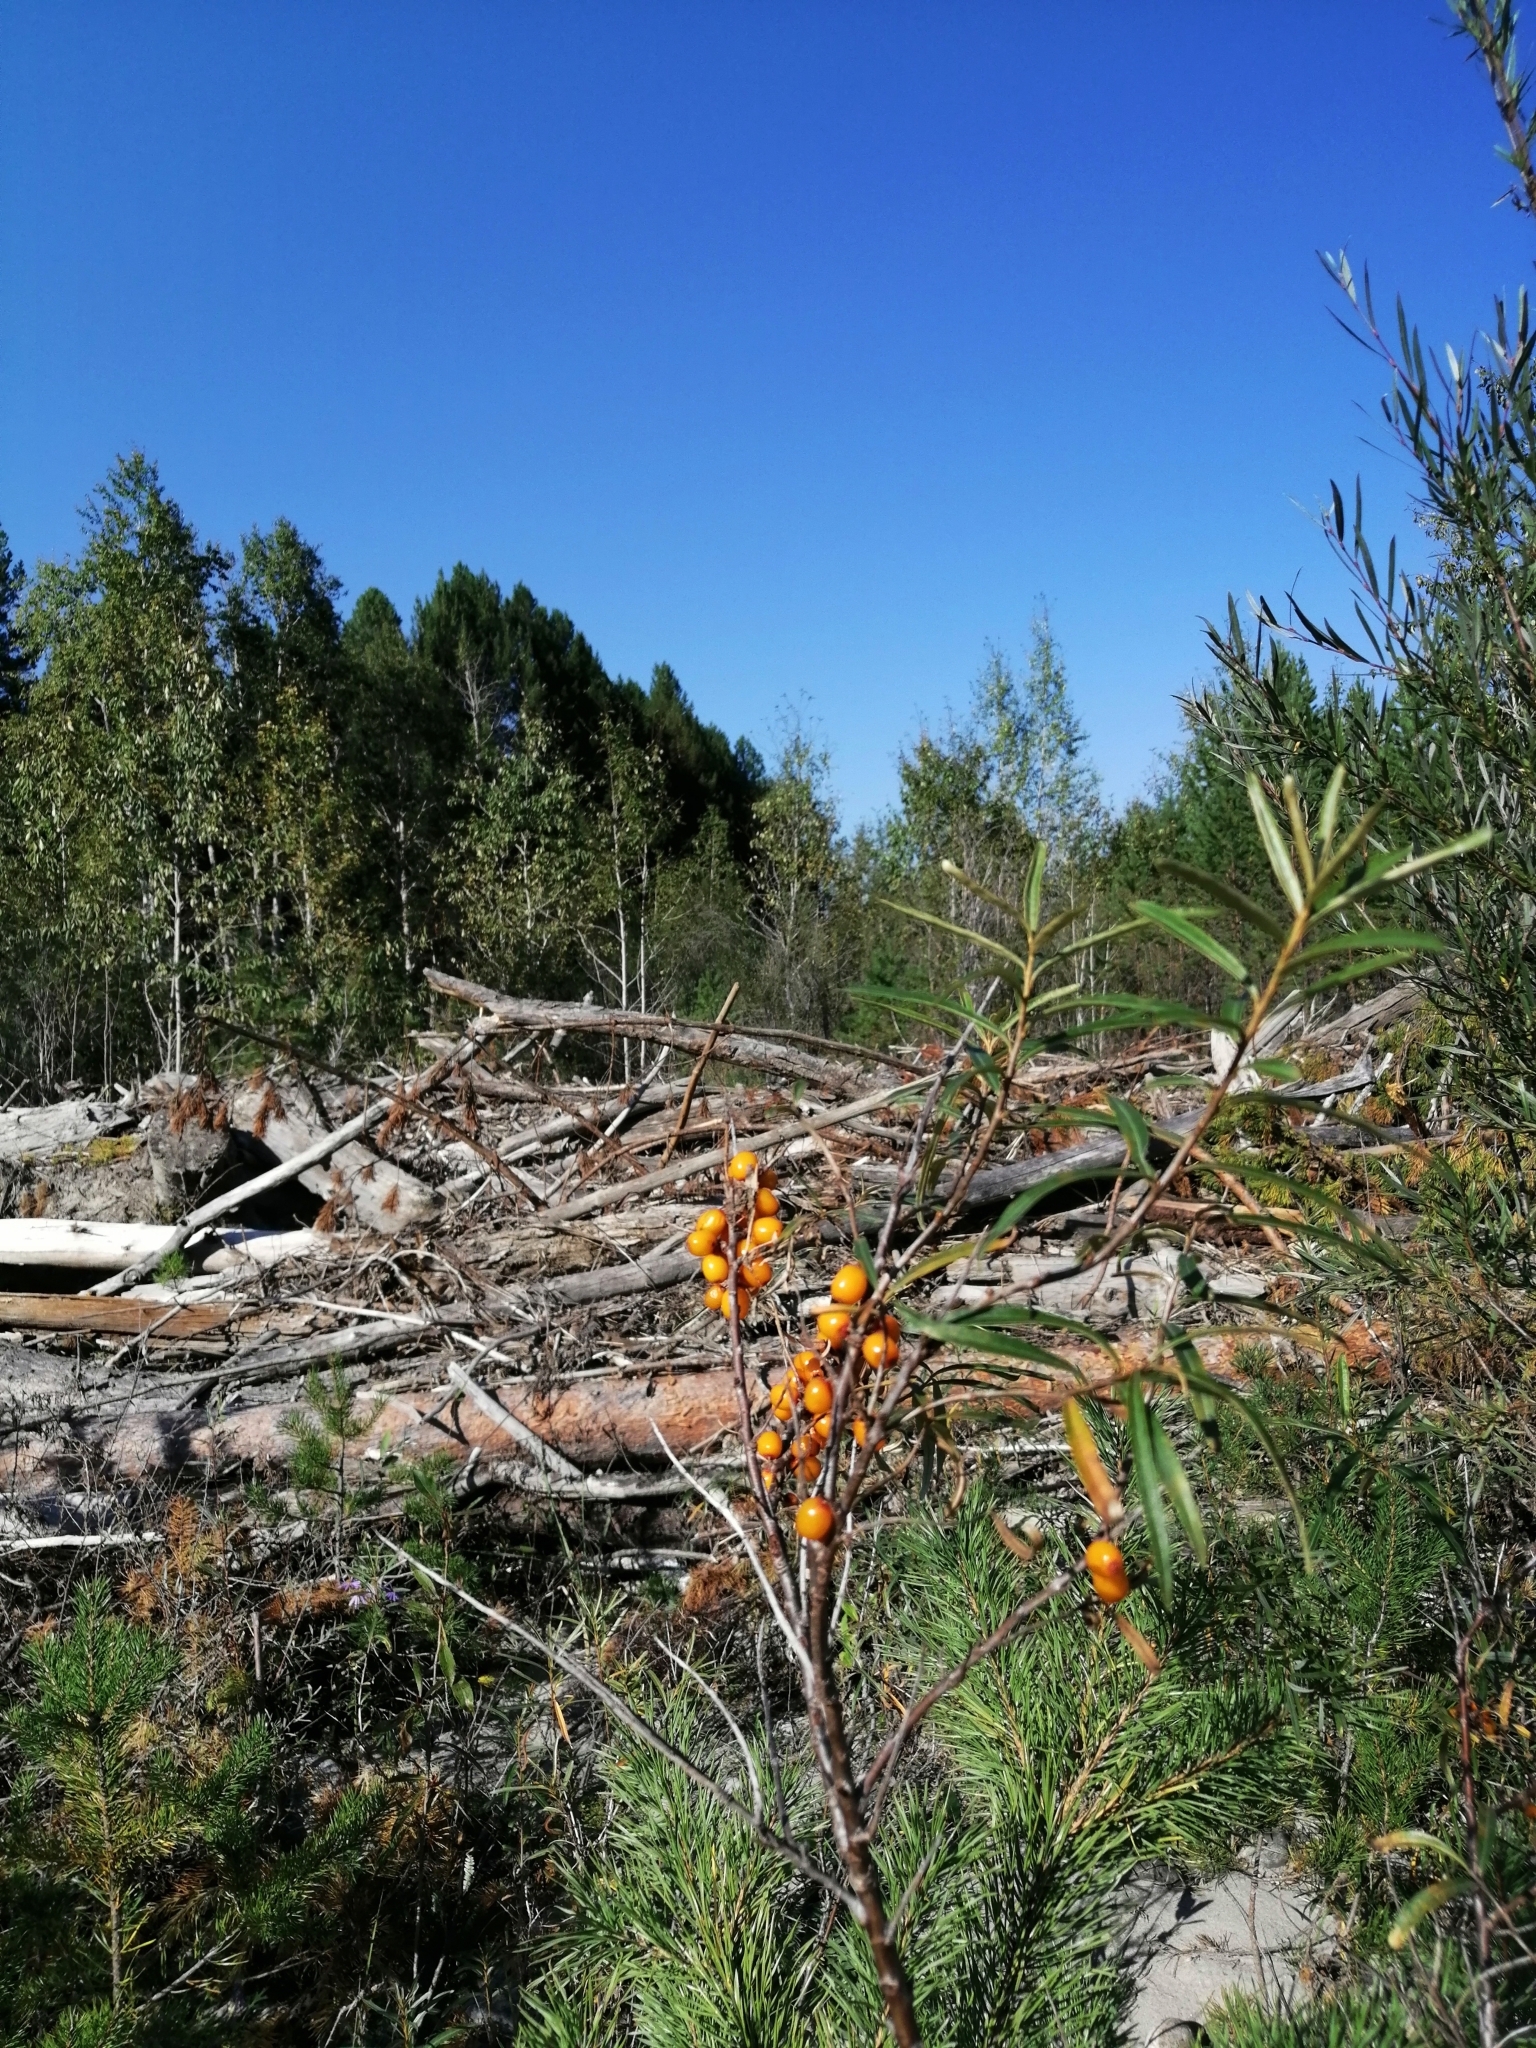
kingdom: Plantae
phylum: Tracheophyta
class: Magnoliopsida
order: Rosales
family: Elaeagnaceae
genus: Hippophae
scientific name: Hippophae rhamnoides
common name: Sea-buckthorn
